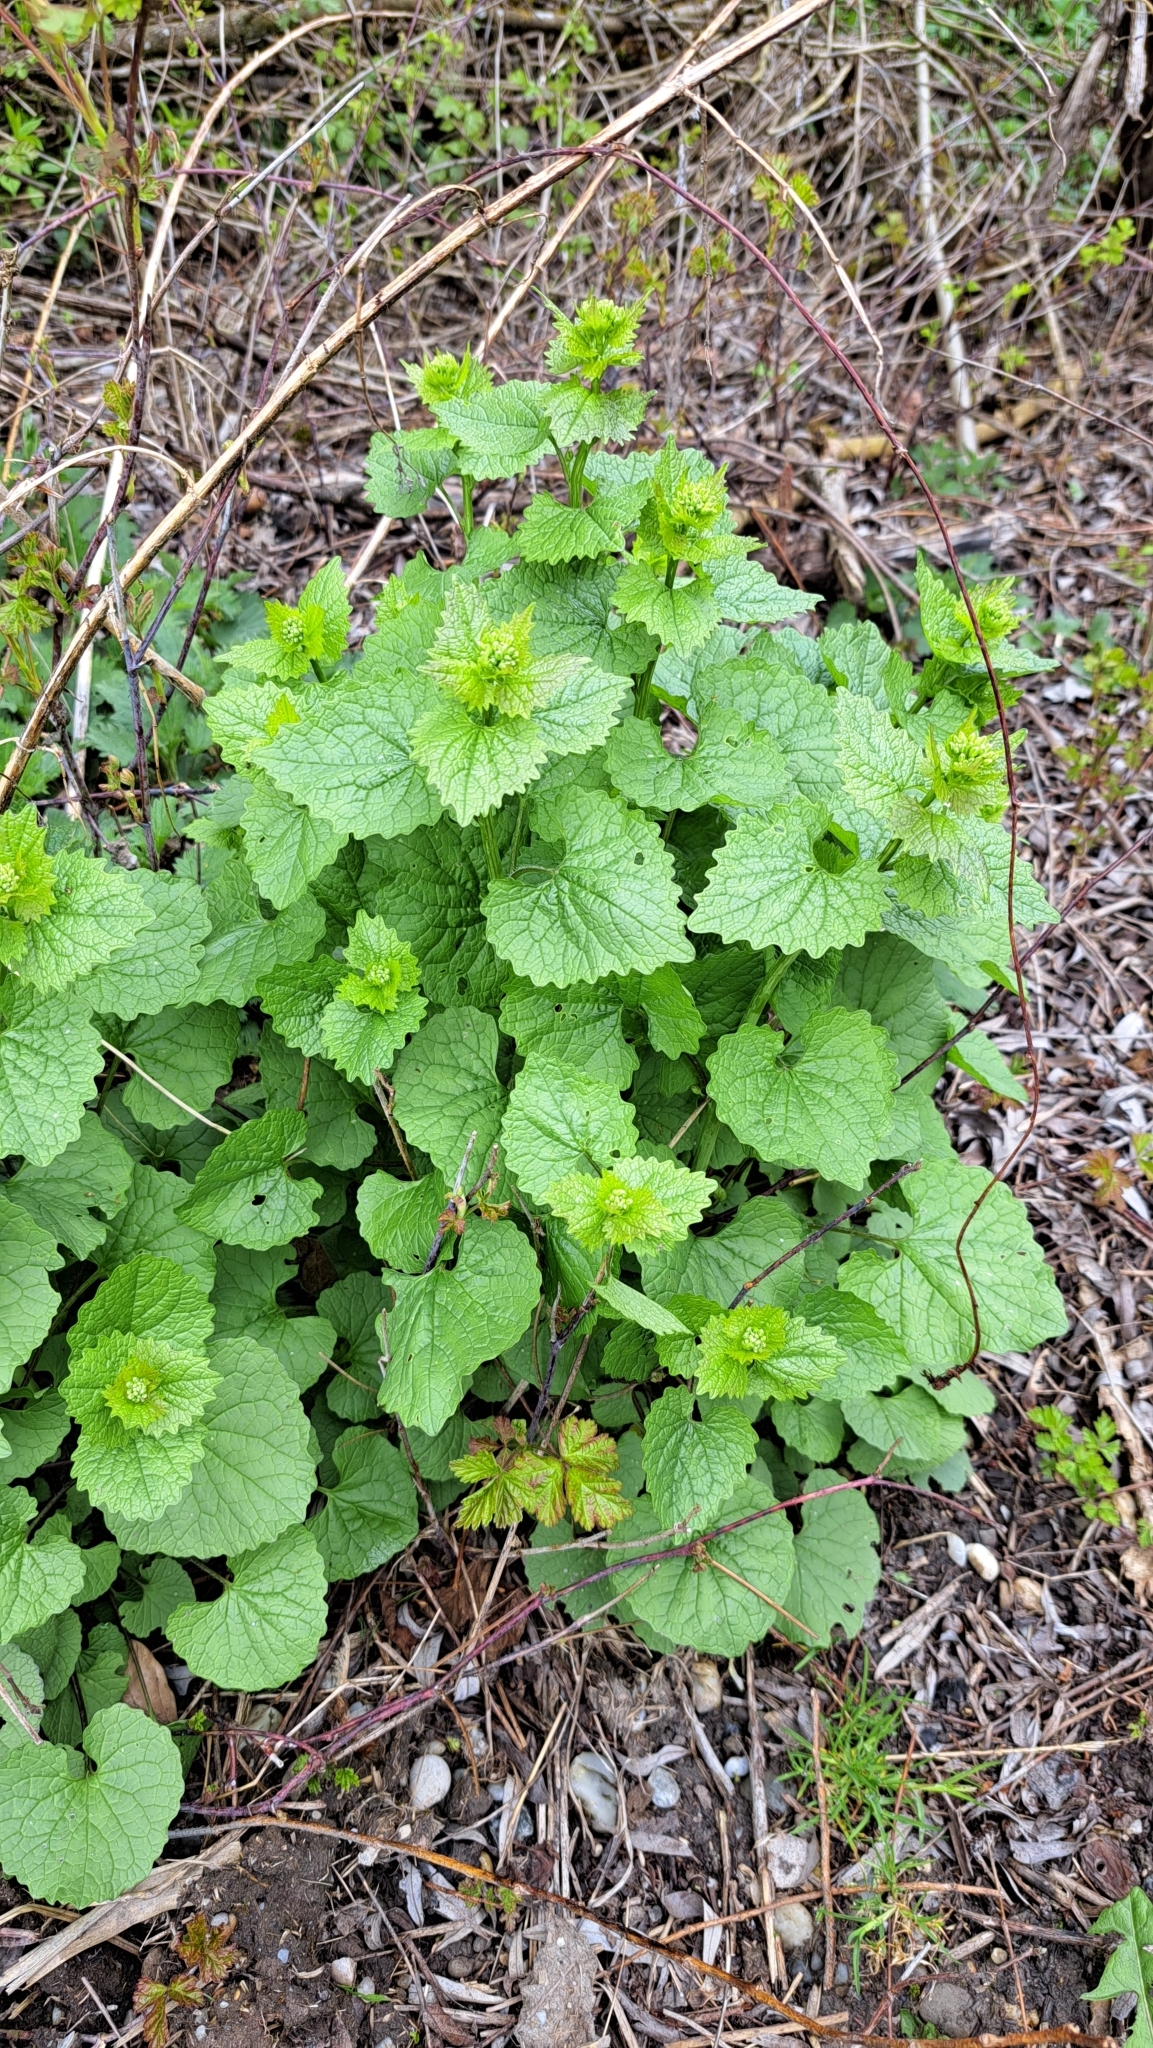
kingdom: Plantae
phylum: Tracheophyta
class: Magnoliopsida
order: Brassicales
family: Brassicaceae
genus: Alliaria
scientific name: Alliaria petiolata
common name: Garlic mustard
